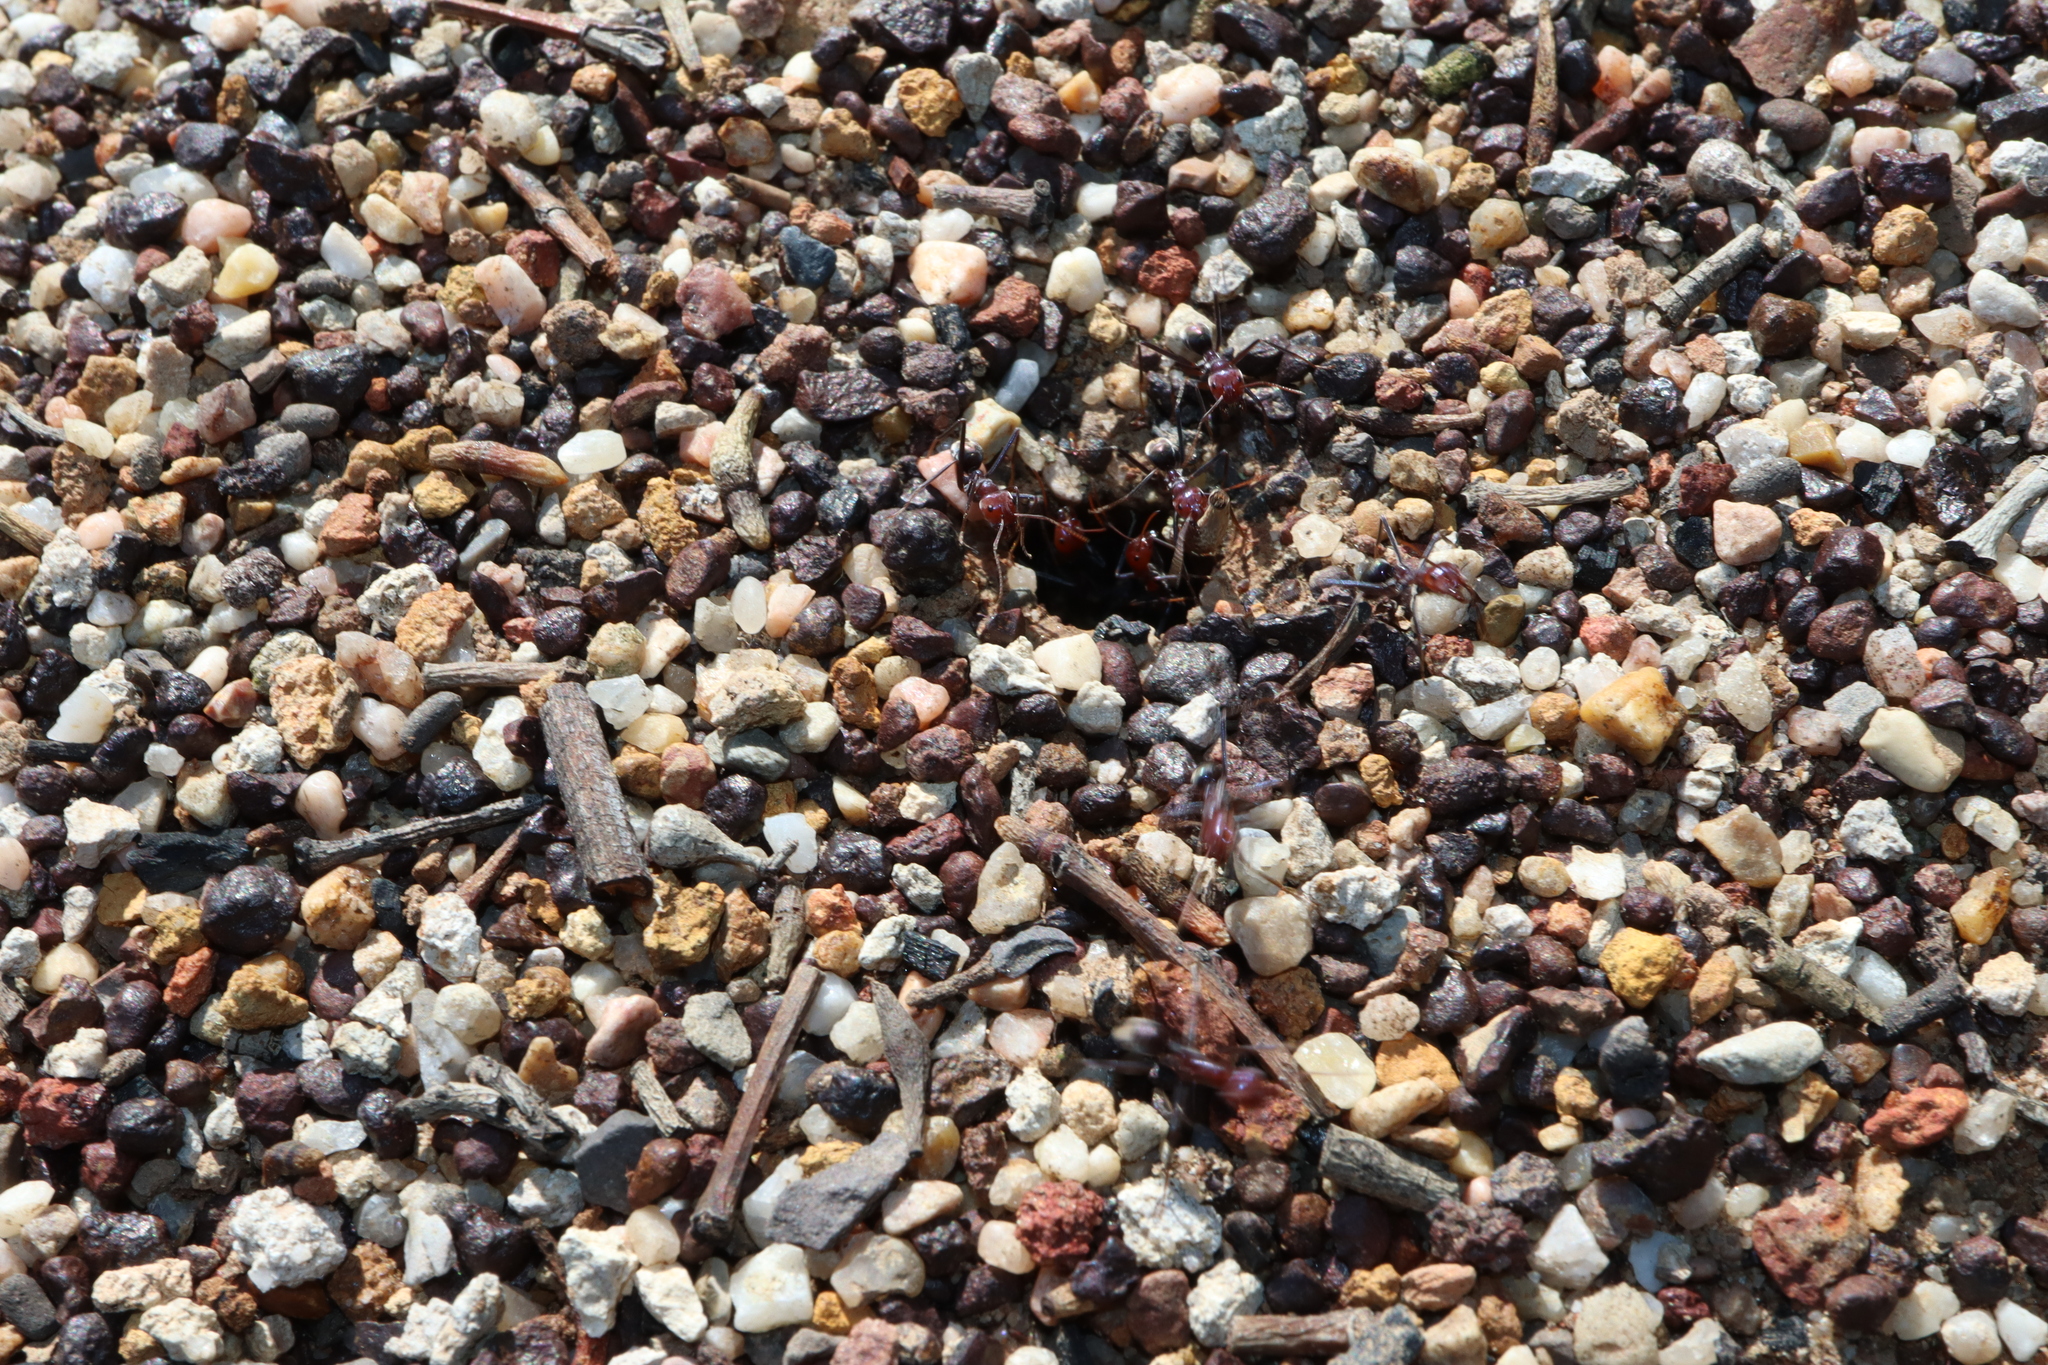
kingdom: Animalia
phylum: Arthropoda
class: Insecta
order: Hymenoptera
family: Formicidae
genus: Iridomyrmex
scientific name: Iridomyrmex purpureus
